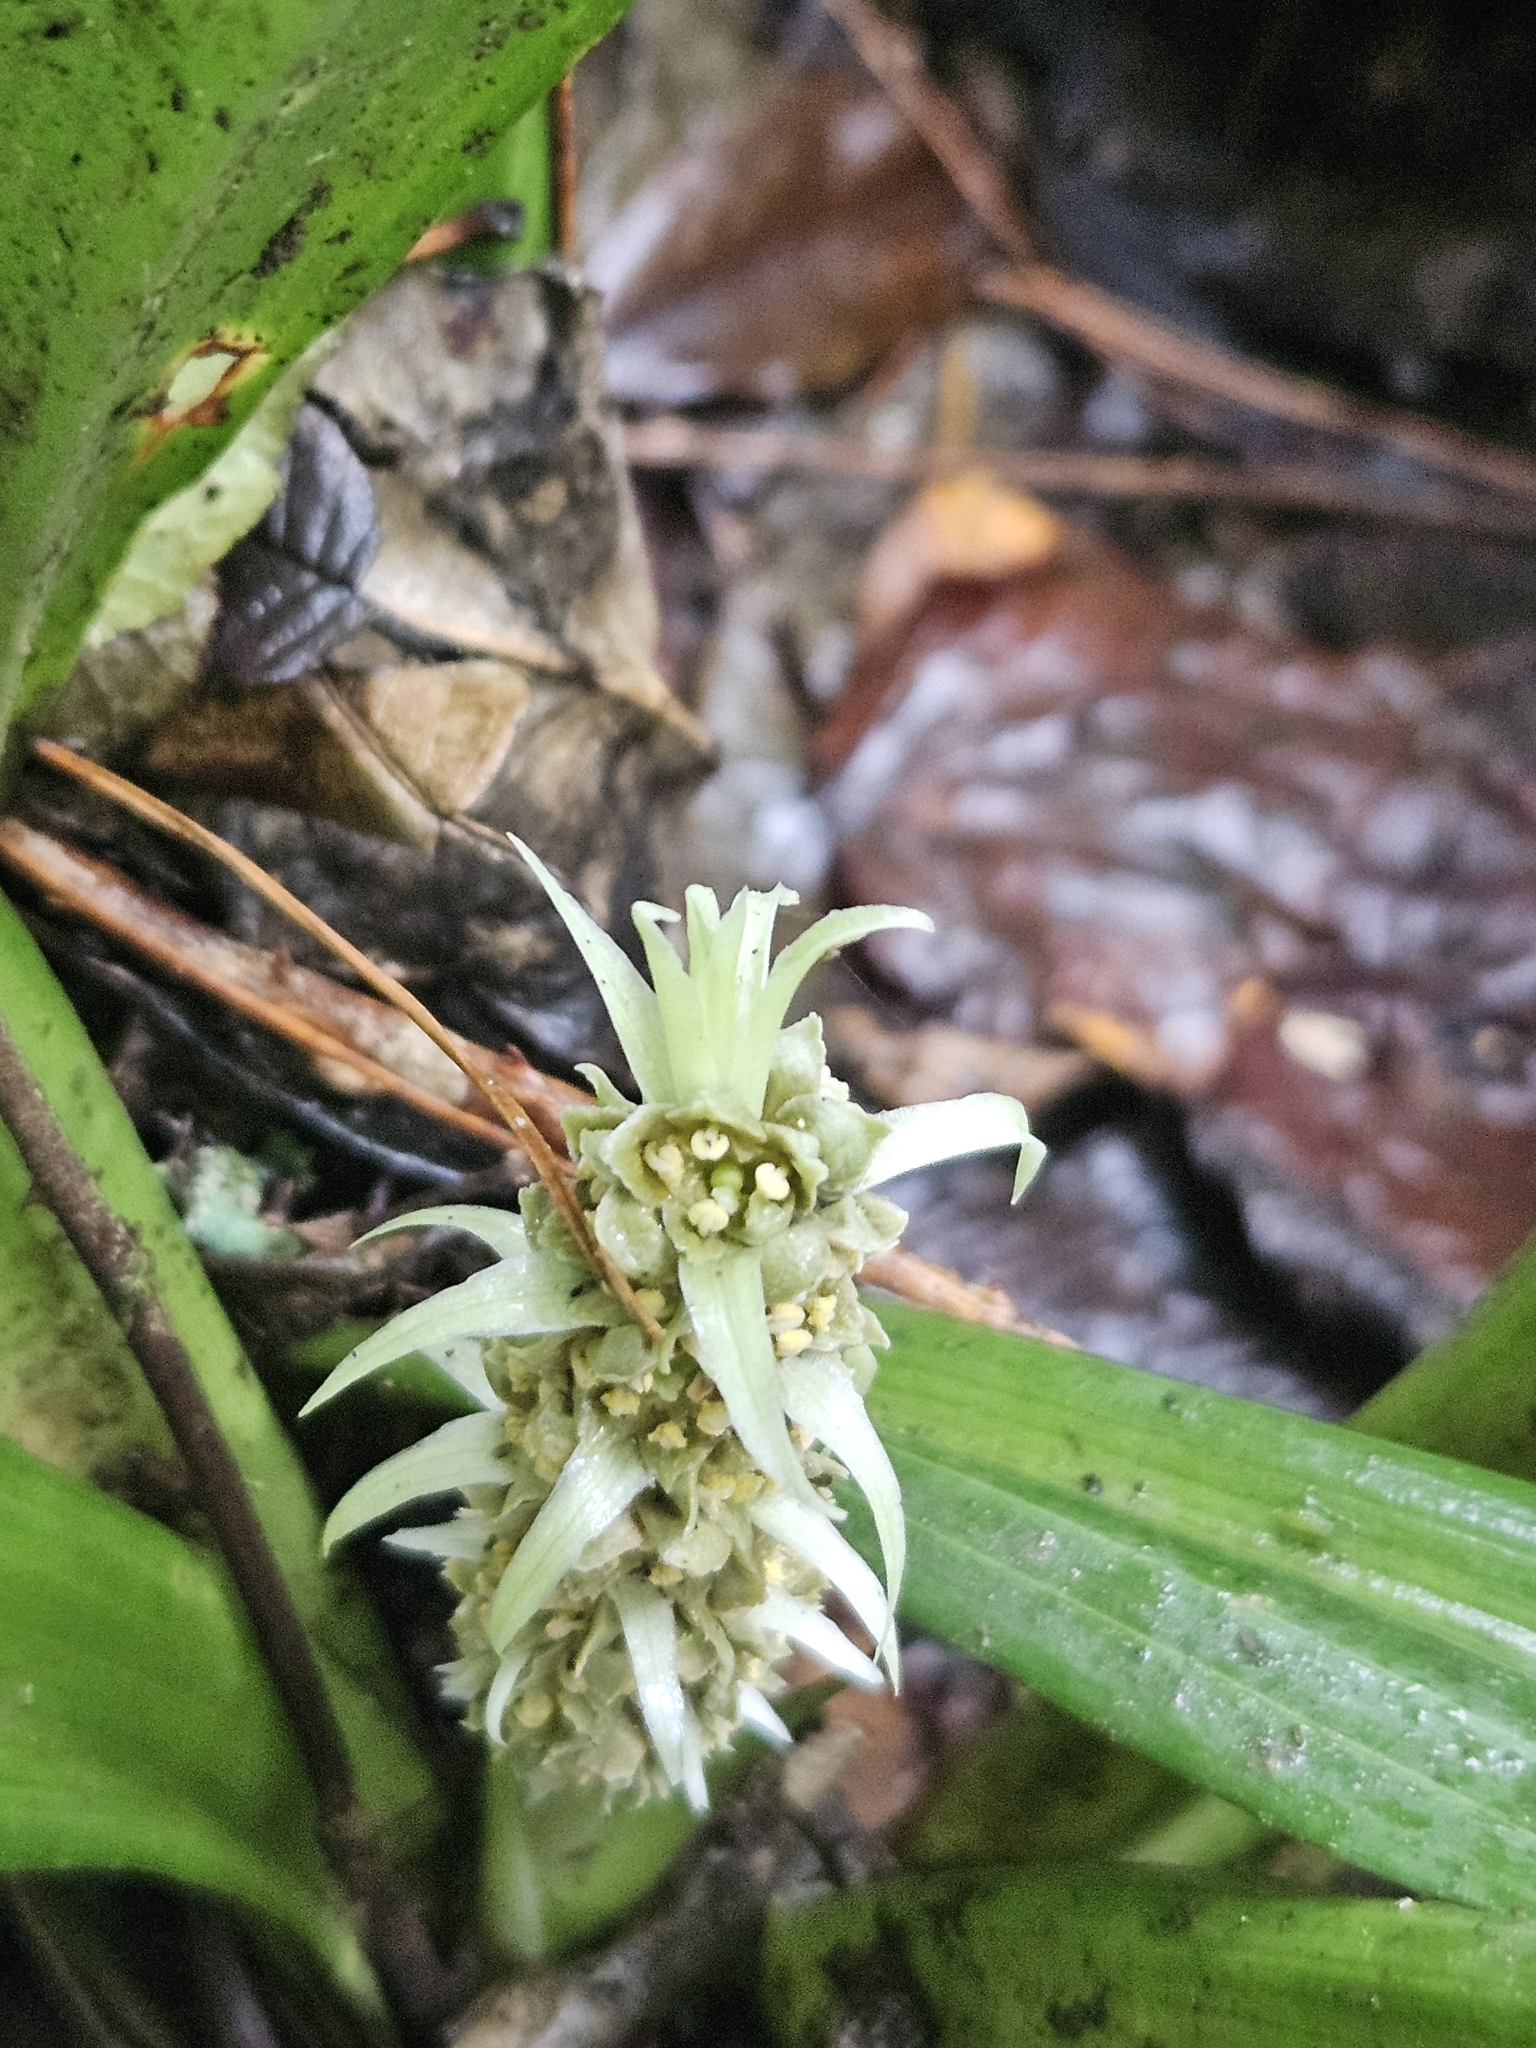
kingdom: Plantae
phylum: Tracheophyta
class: Liliopsida
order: Asparagales
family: Asparagaceae
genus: Rohdea
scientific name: Rohdea fargesii
